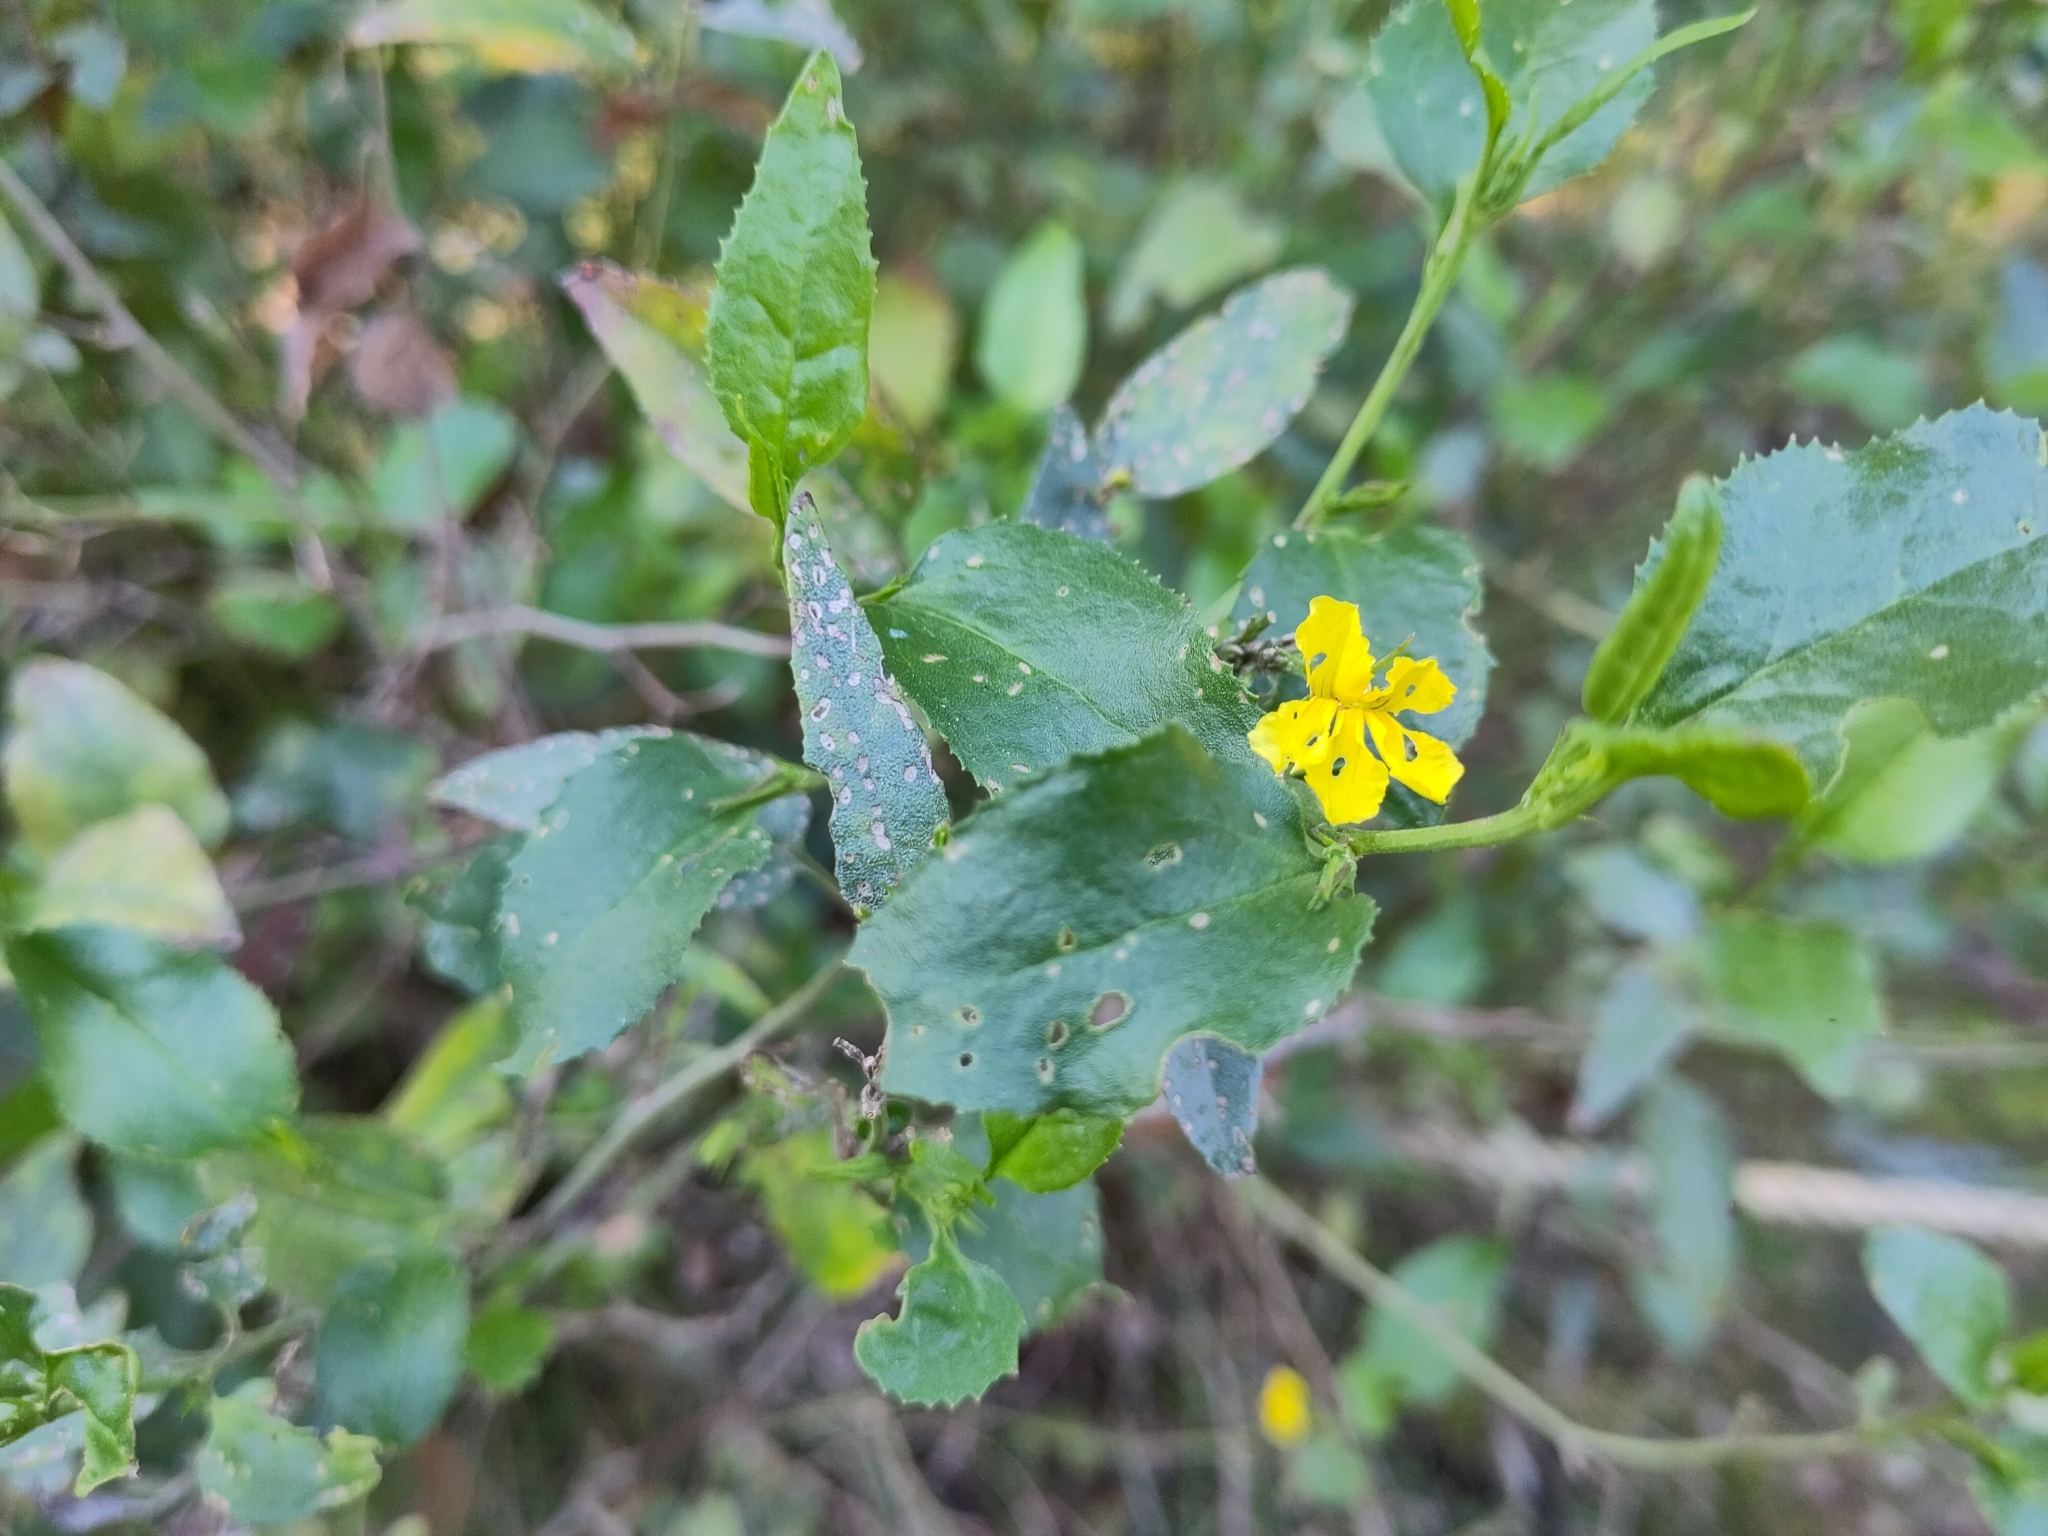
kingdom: Plantae
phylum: Tracheophyta
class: Magnoliopsida
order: Asterales
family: Goodeniaceae
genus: Goodenia
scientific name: Goodenia ovata
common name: Hop goodenia
